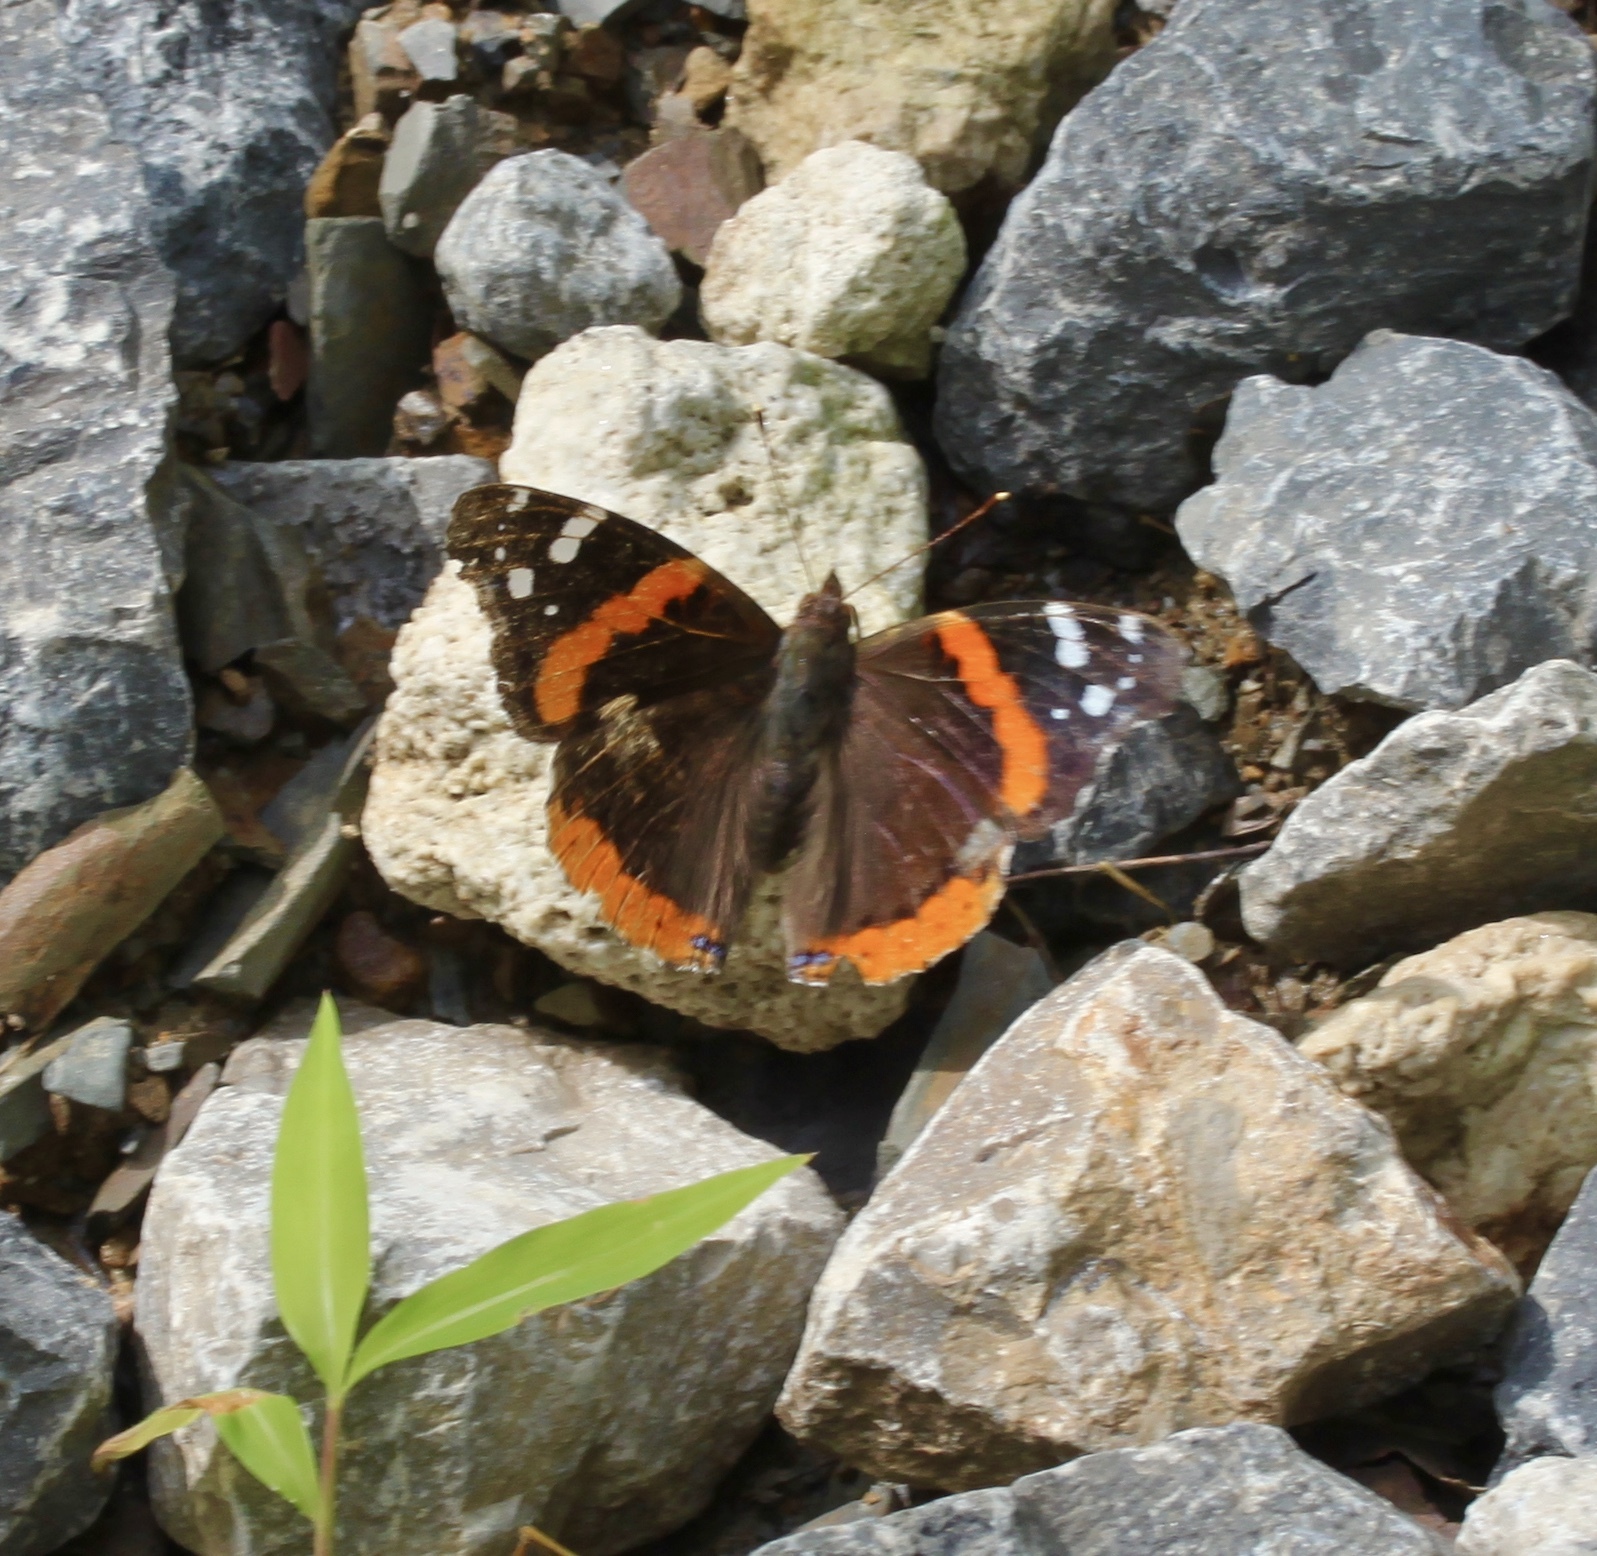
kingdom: Animalia
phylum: Arthropoda
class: Insecta
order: Lepidoptera
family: Nymphalidae
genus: Vanessa
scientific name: Vanessa atalanta
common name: Red admiral
